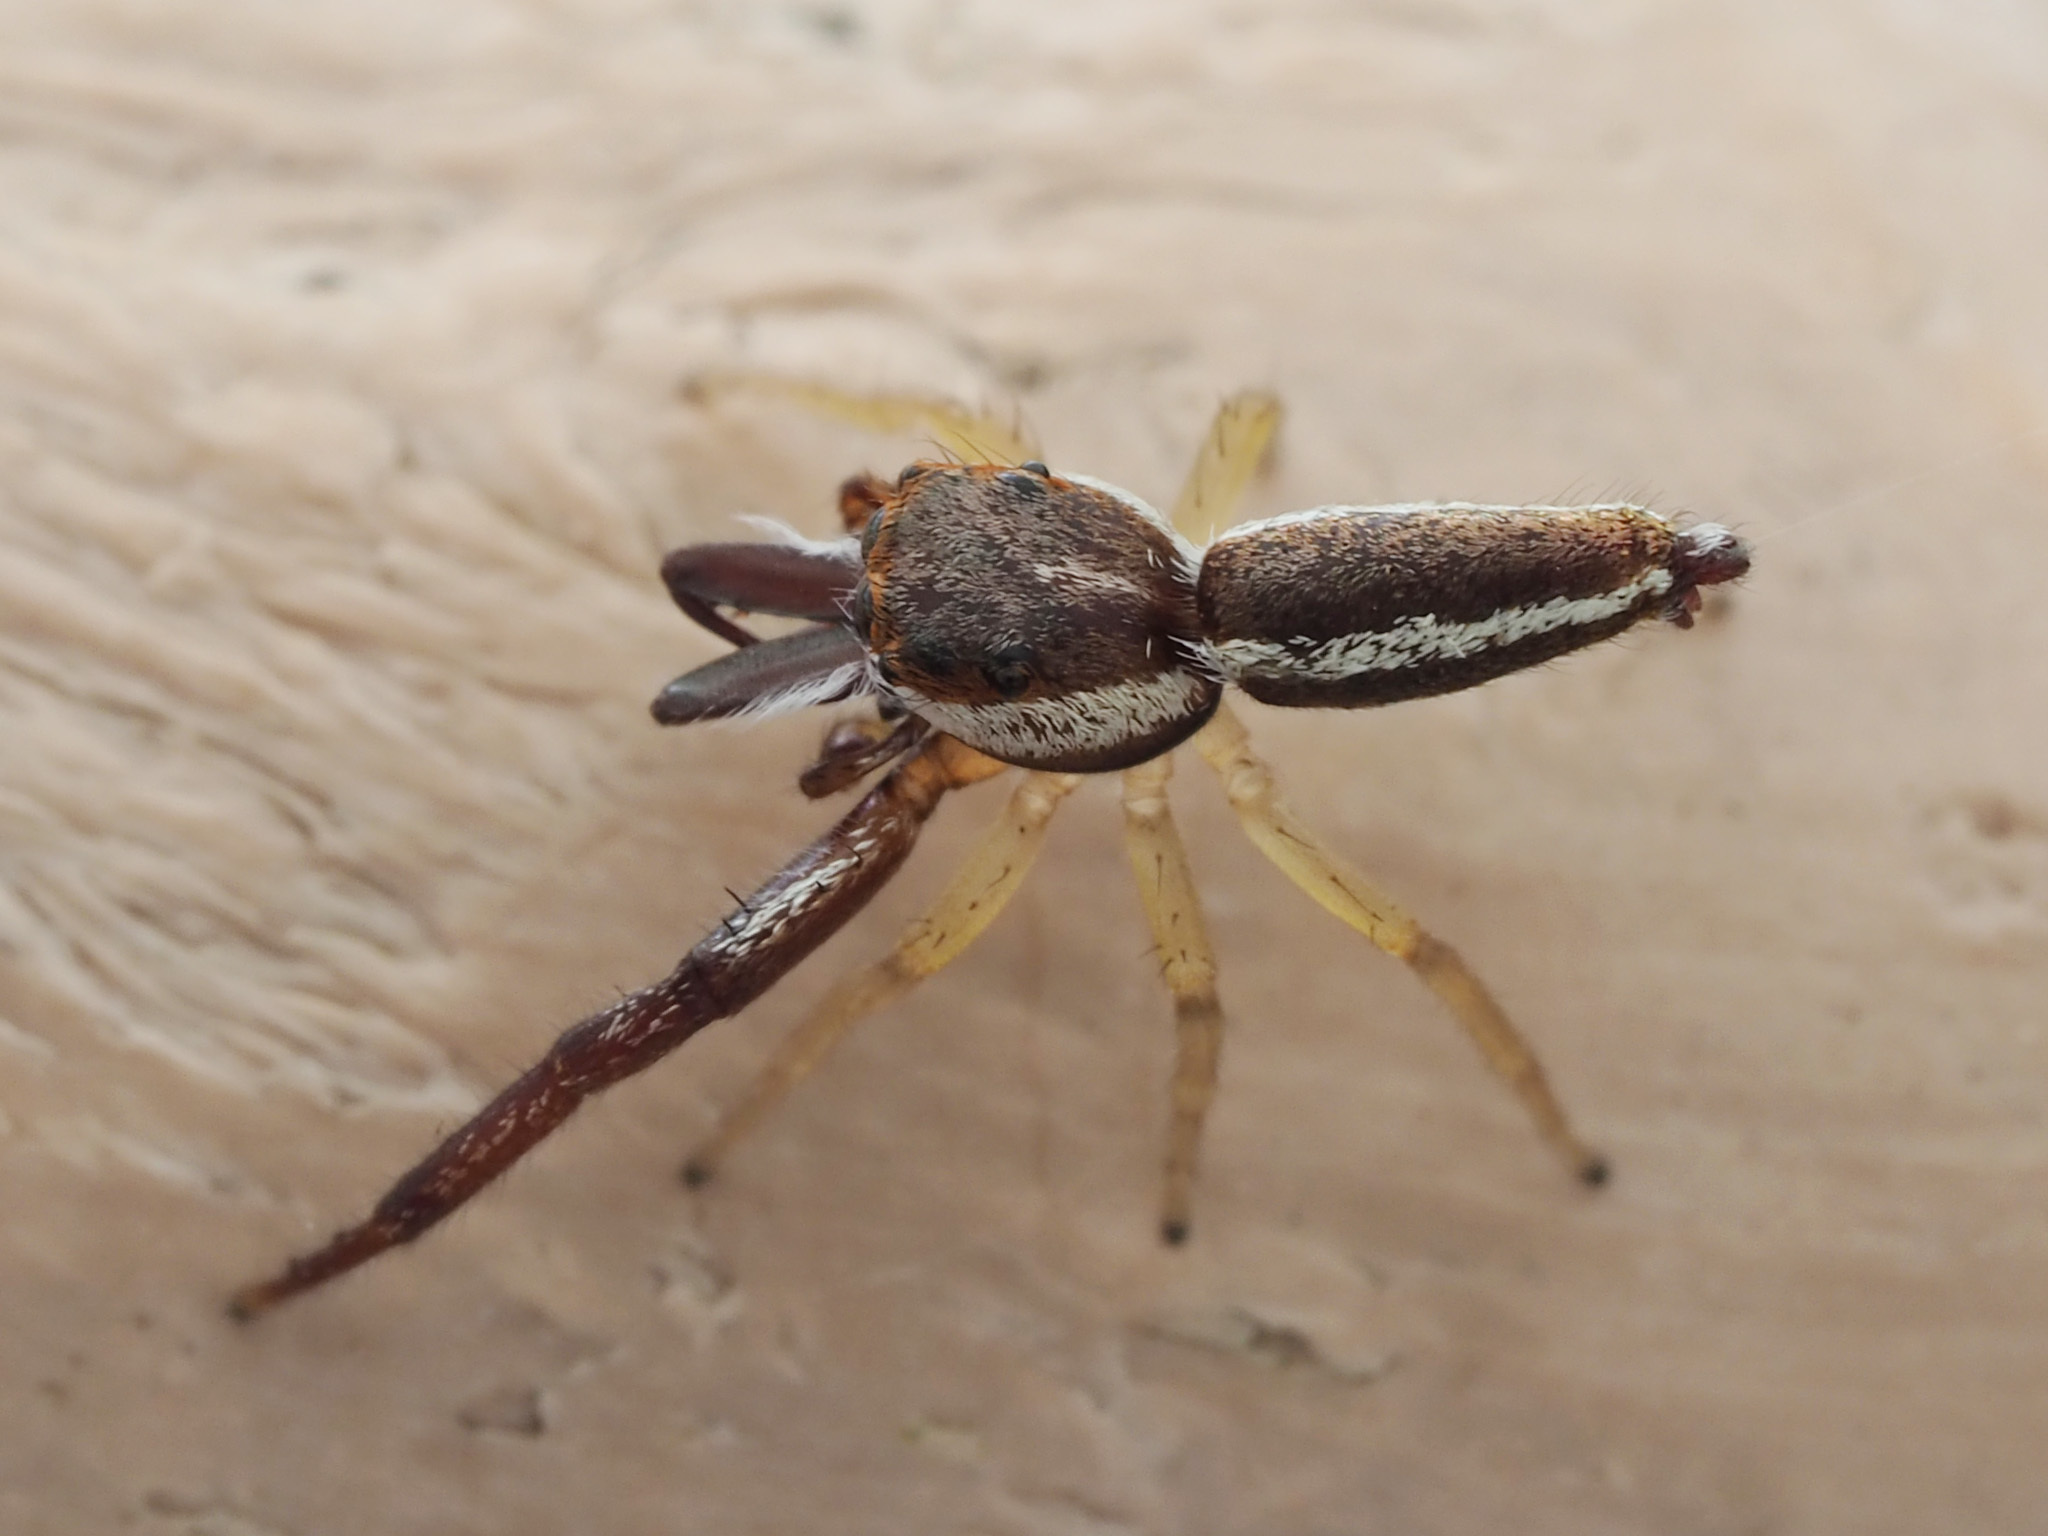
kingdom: Animalia
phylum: Arthropoda
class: Arachnida
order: Araneae
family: Salticidae
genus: Hentzia
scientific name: Hentzia palmarum
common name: Common hentz jumping spider
